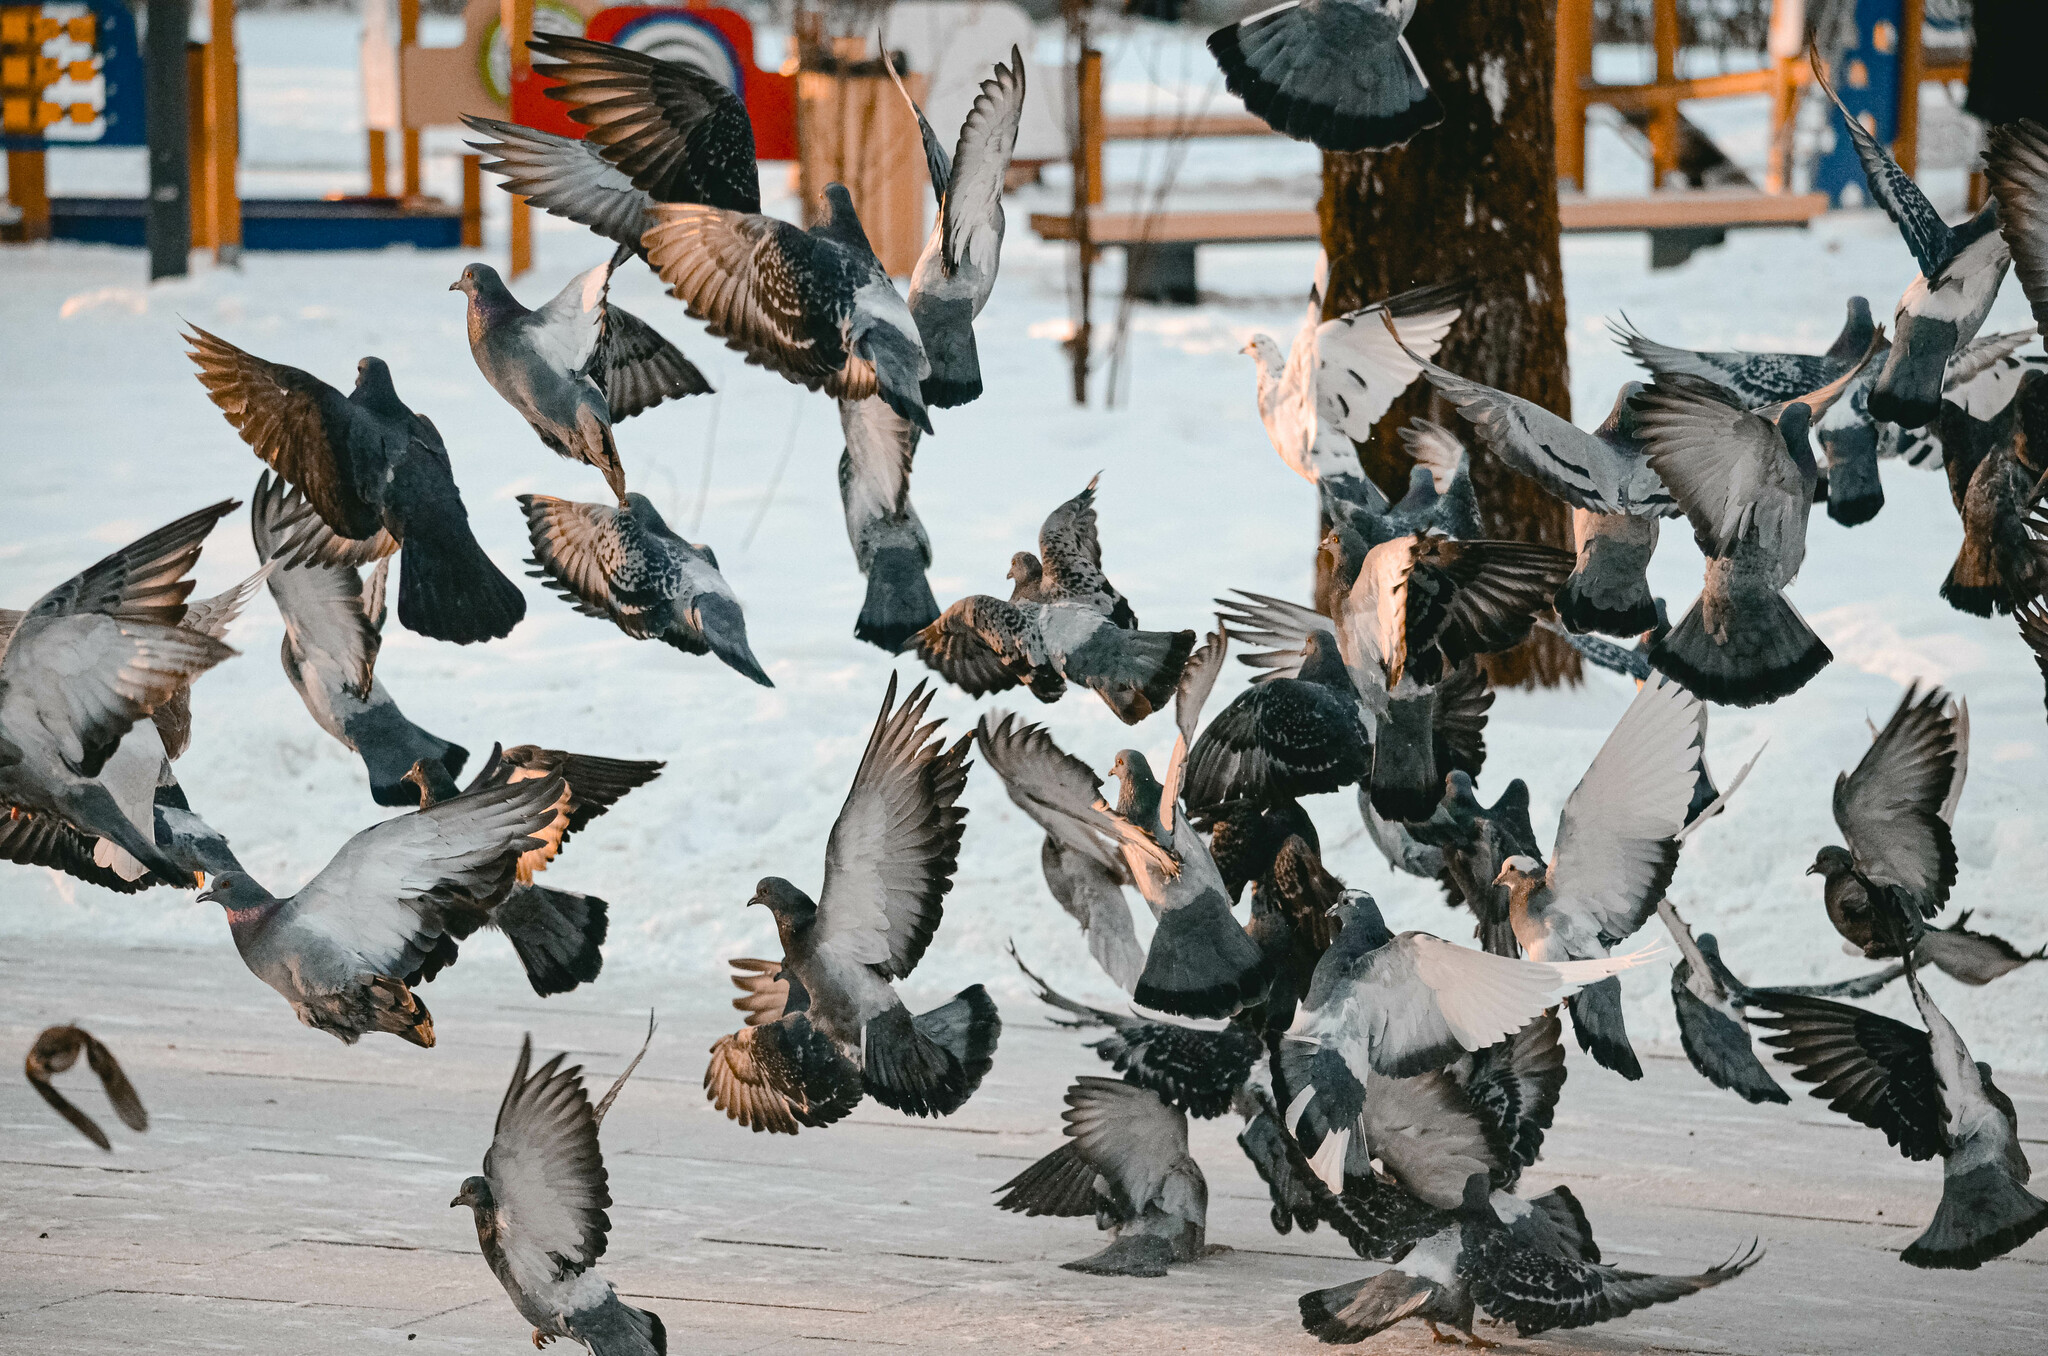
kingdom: Animalia
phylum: Chordata
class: Aves
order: Columbiformes
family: Columbidae
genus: Columba
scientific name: Columba livia
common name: Rock pigeon
